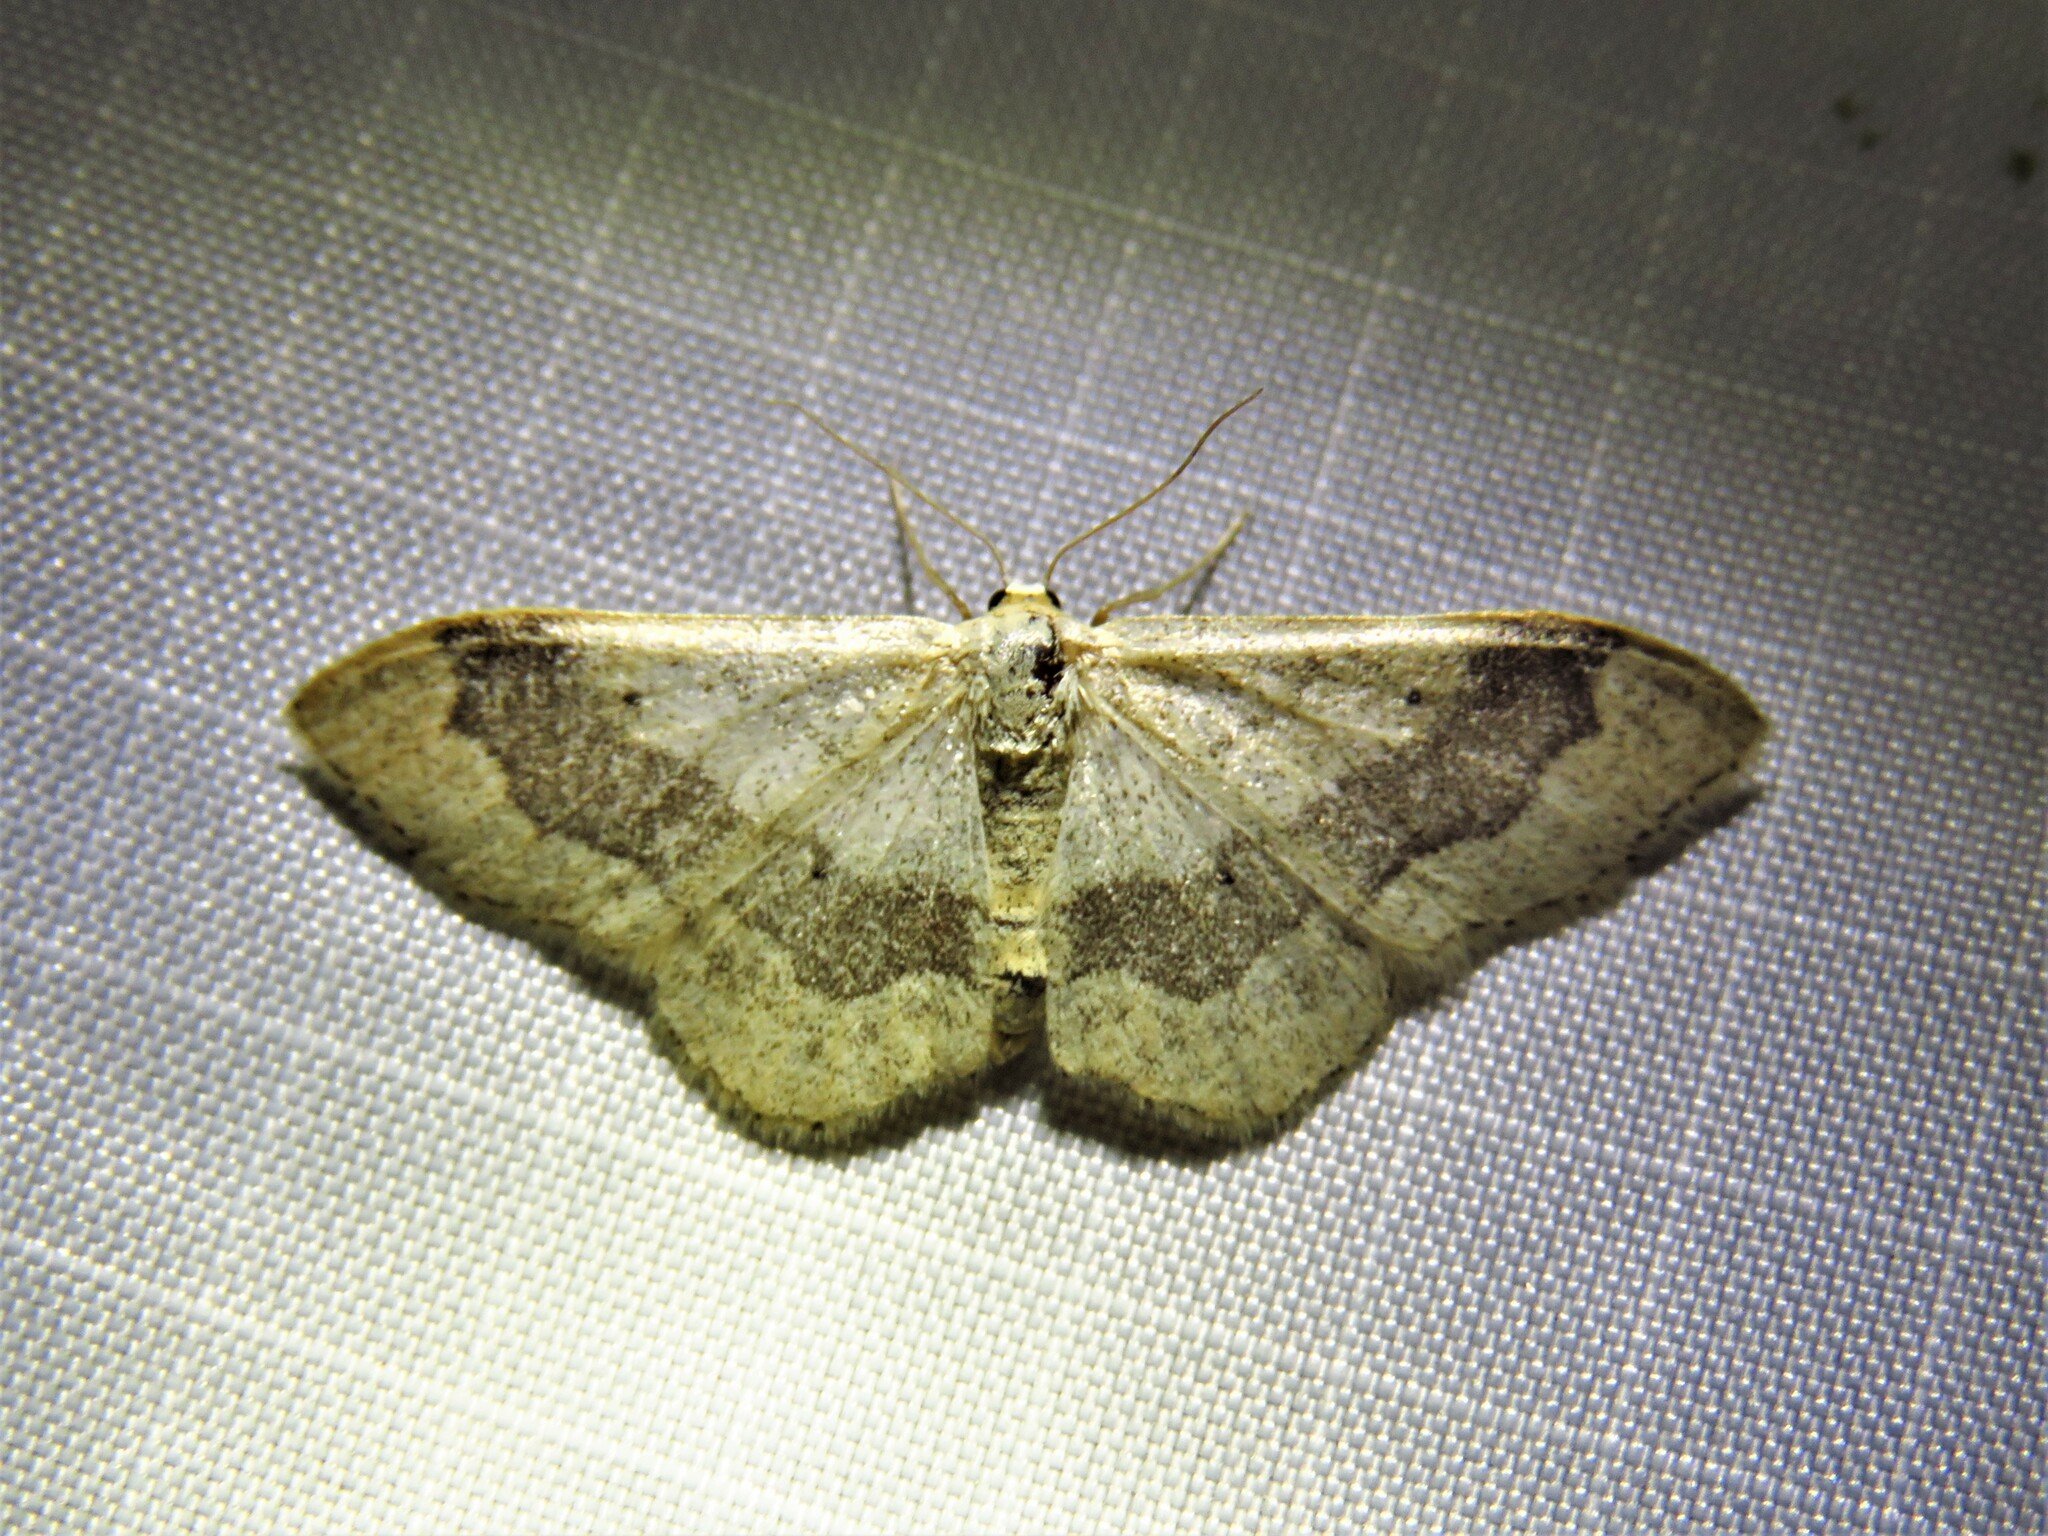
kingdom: Animalia
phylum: Arthropoda
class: Insecta
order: Lepidoptera
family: Geometridae
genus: Idaea
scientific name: Idaea aversata
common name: Riband wave
